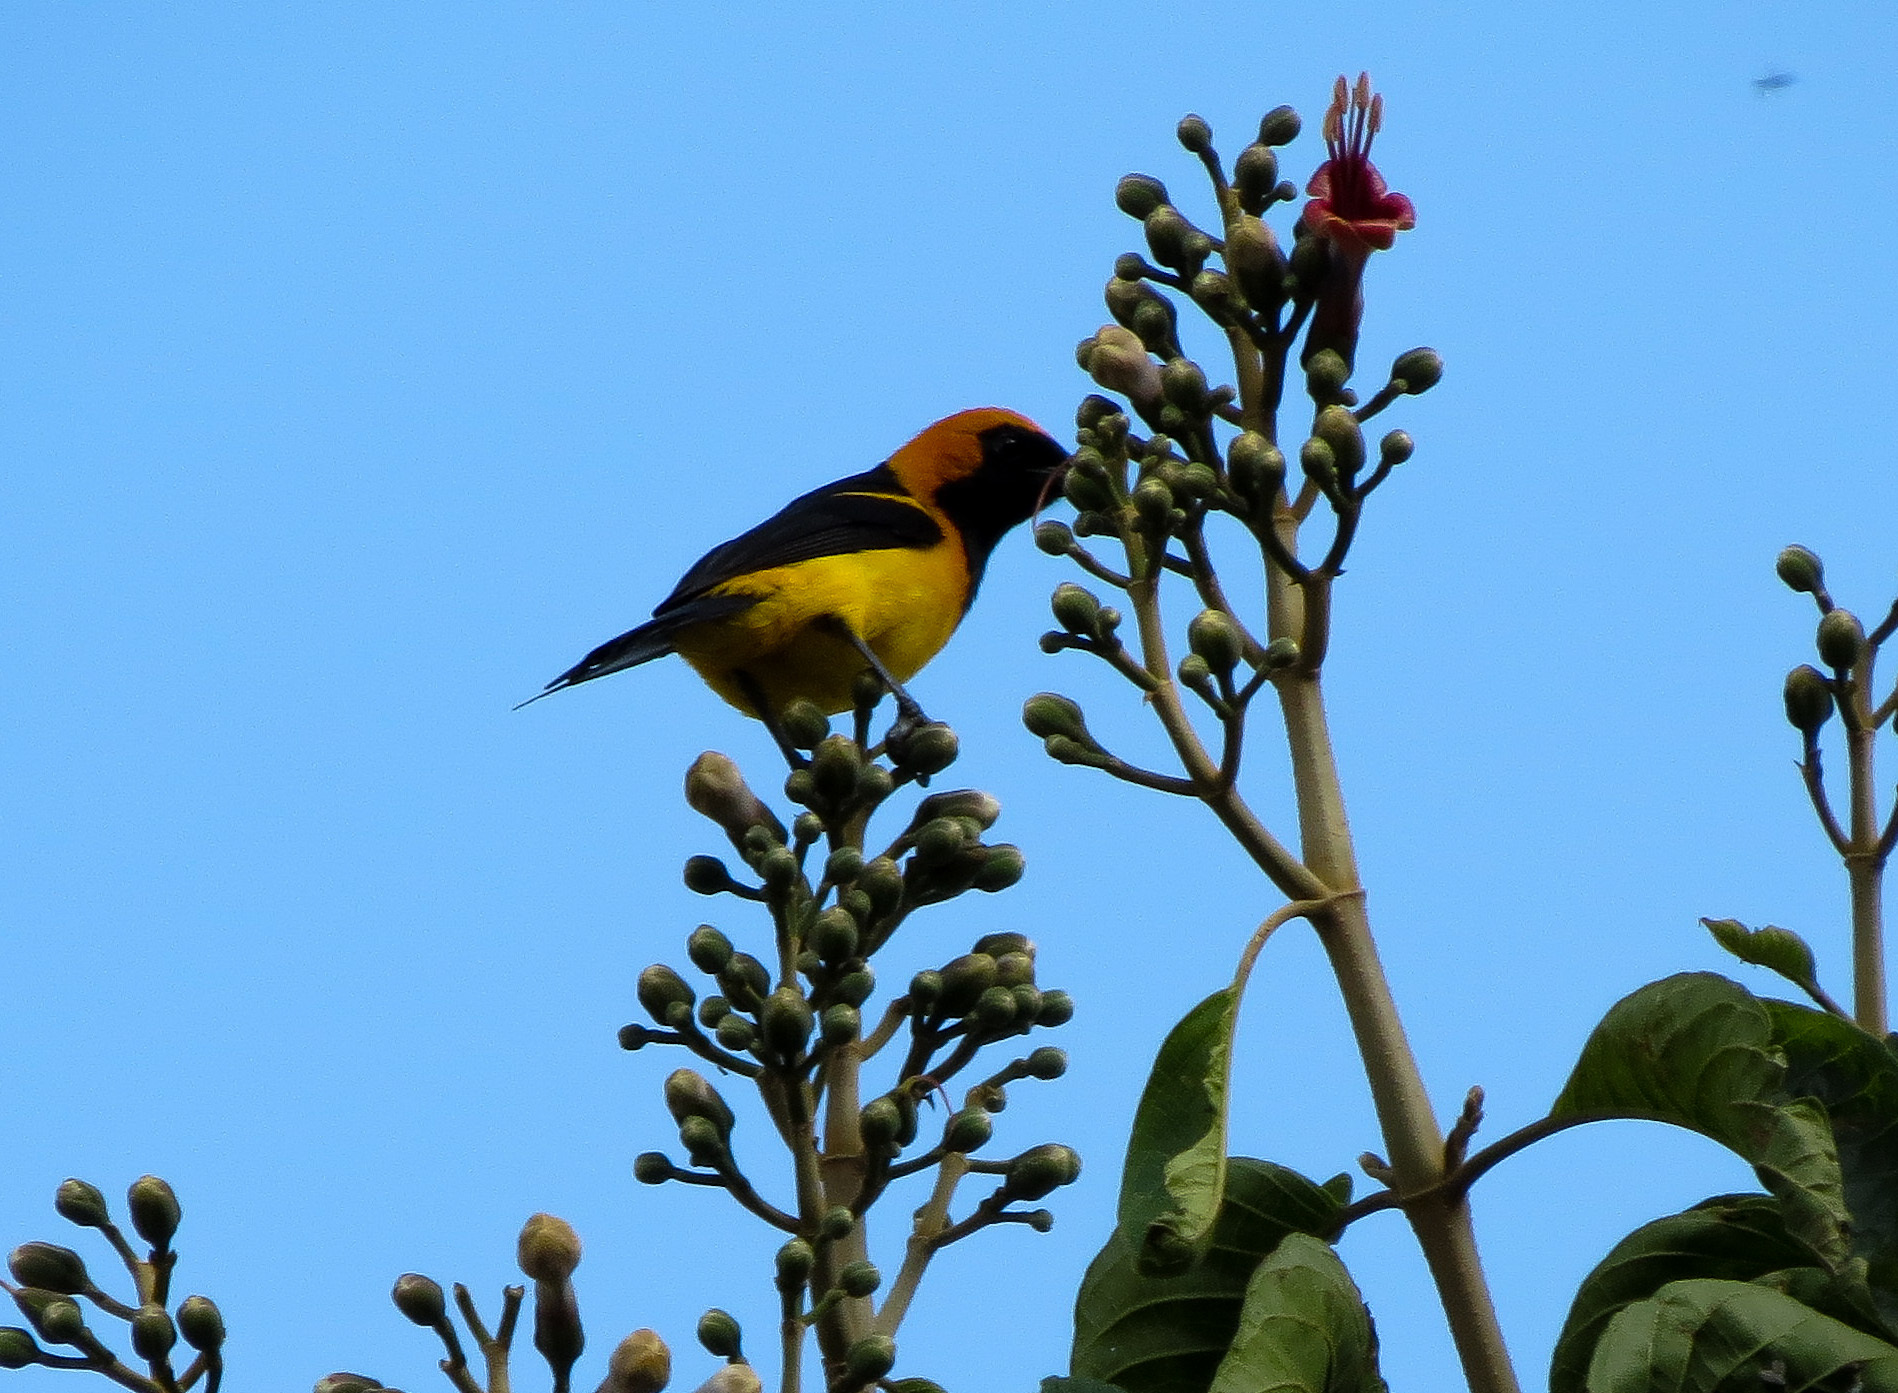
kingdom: Animalia
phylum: Chordata
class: Aves
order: Passeriformes
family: Icteridae
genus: Icterus
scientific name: Icterus auricapillus
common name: Orange-crowned oriole
